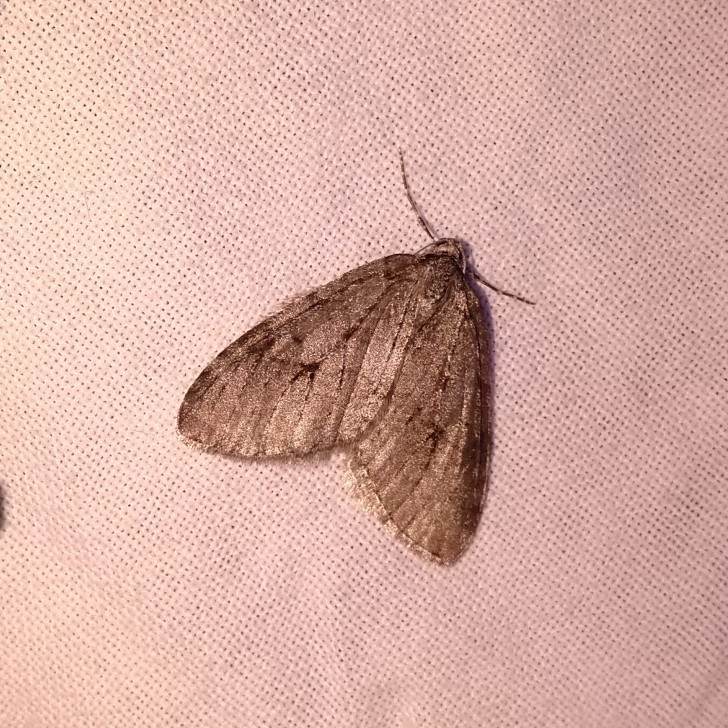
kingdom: Animalia
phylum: Arthropoda
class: Insecta
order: Lepidoptera
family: Geometridae
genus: Epirrita
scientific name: Epirrita autumnata
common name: Autumnal moth
